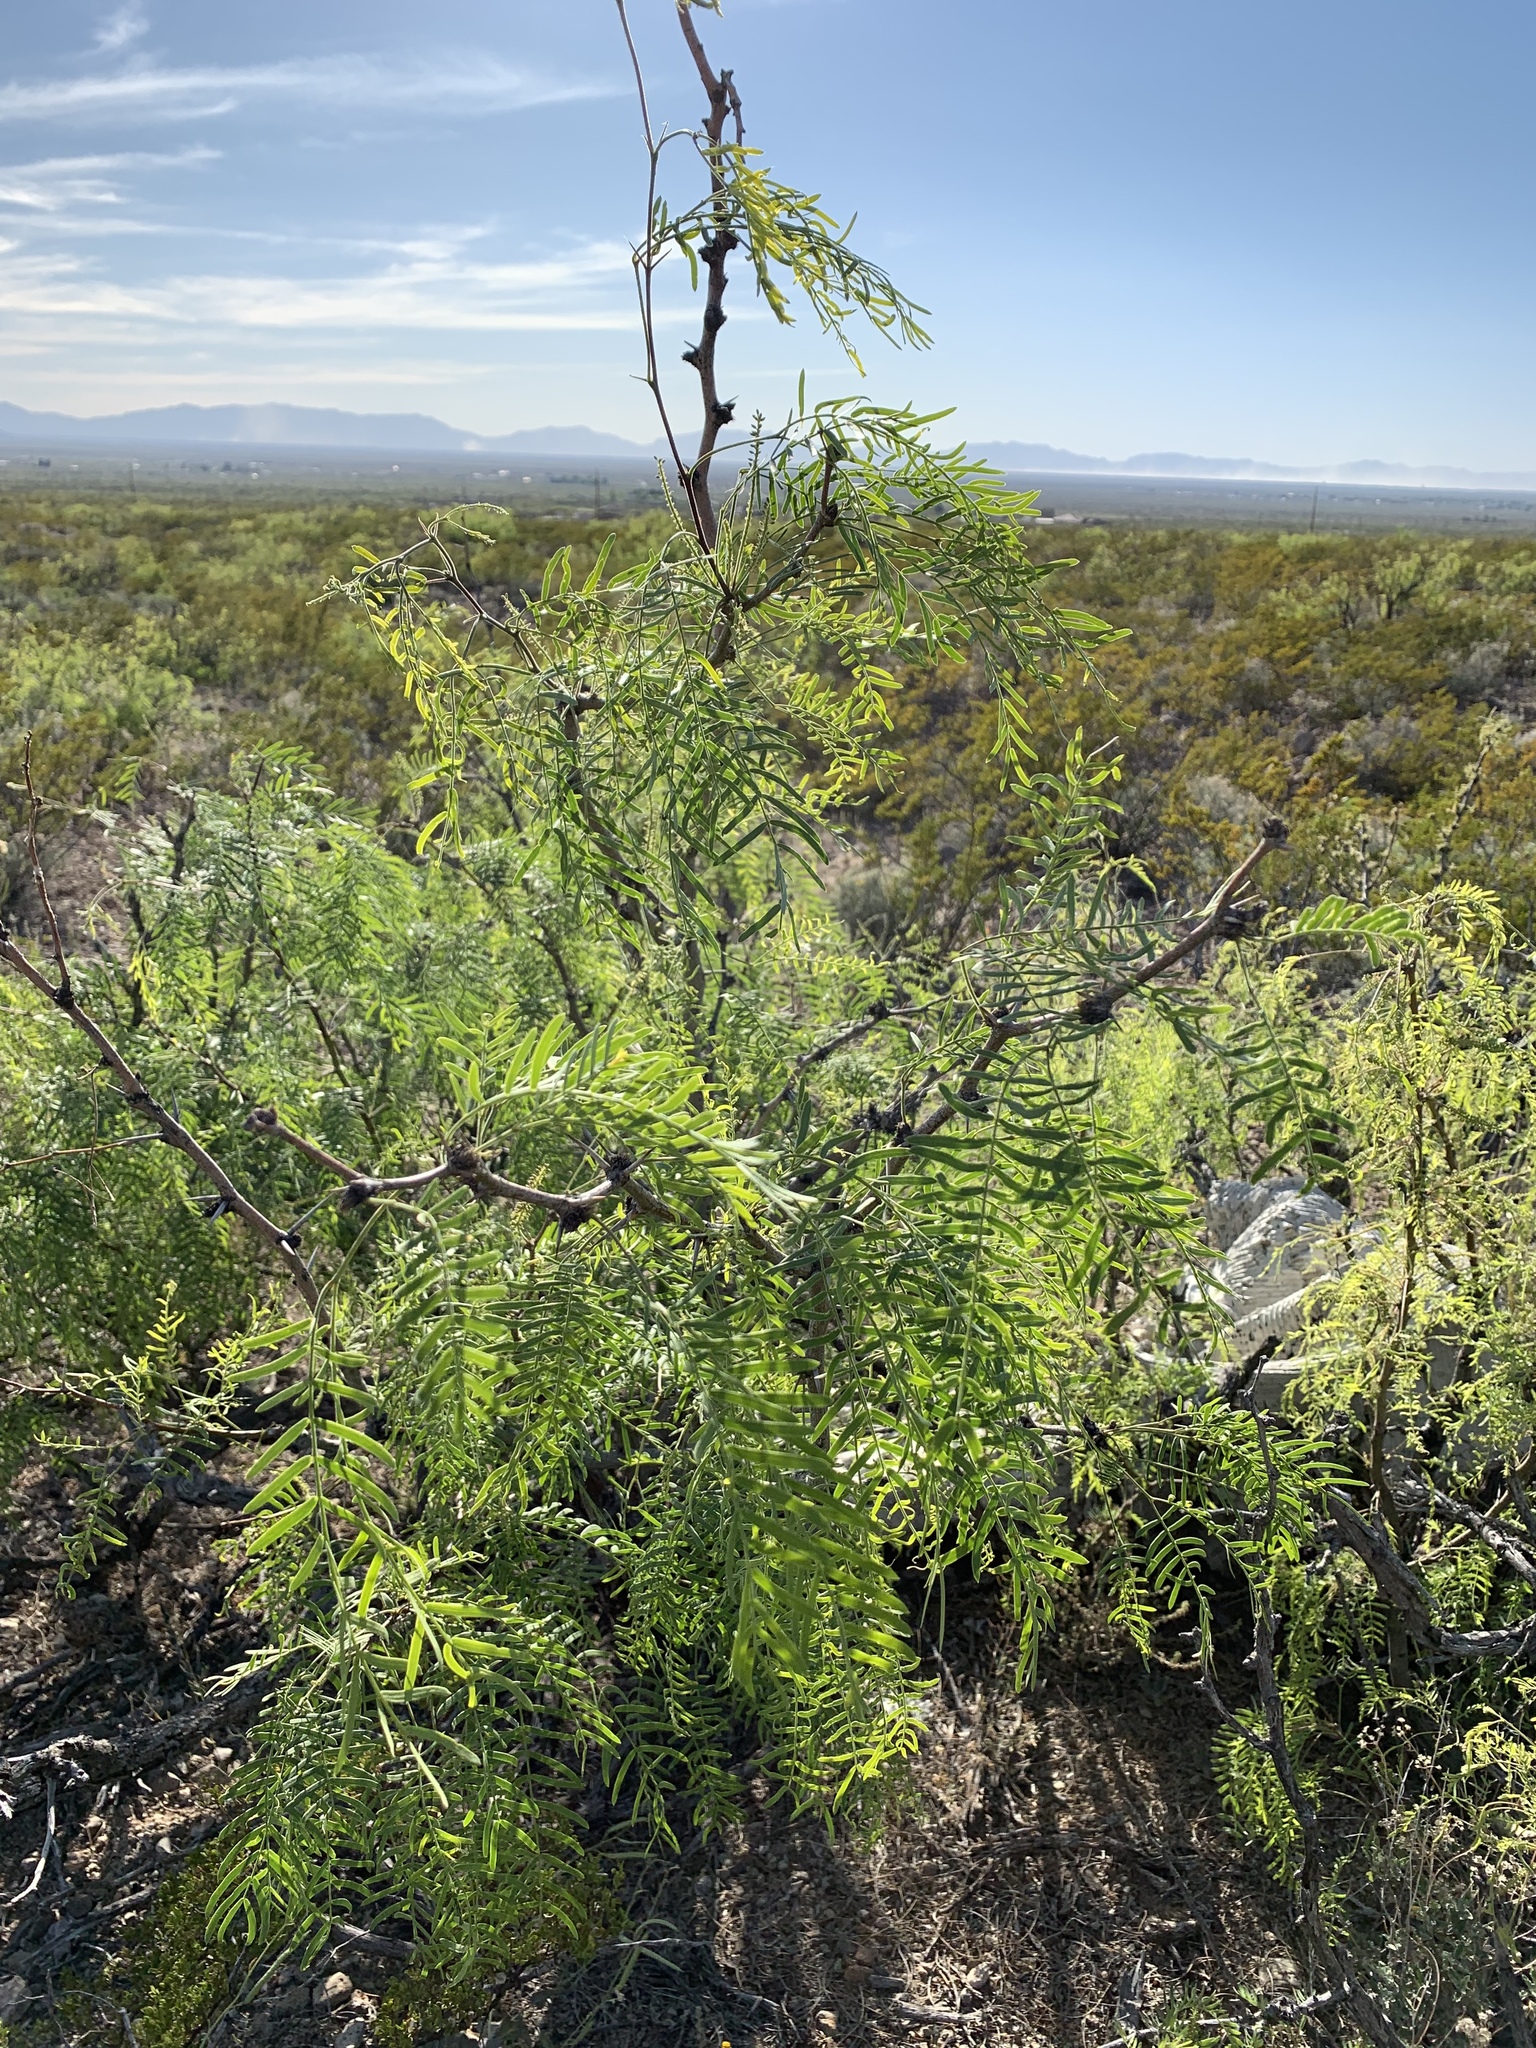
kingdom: Plantae
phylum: Tracheophyta
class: Magnoliopsida
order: Fabales
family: Fabaceae
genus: Prosopis
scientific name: Prosopis glandulosa
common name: Honey mesquite
